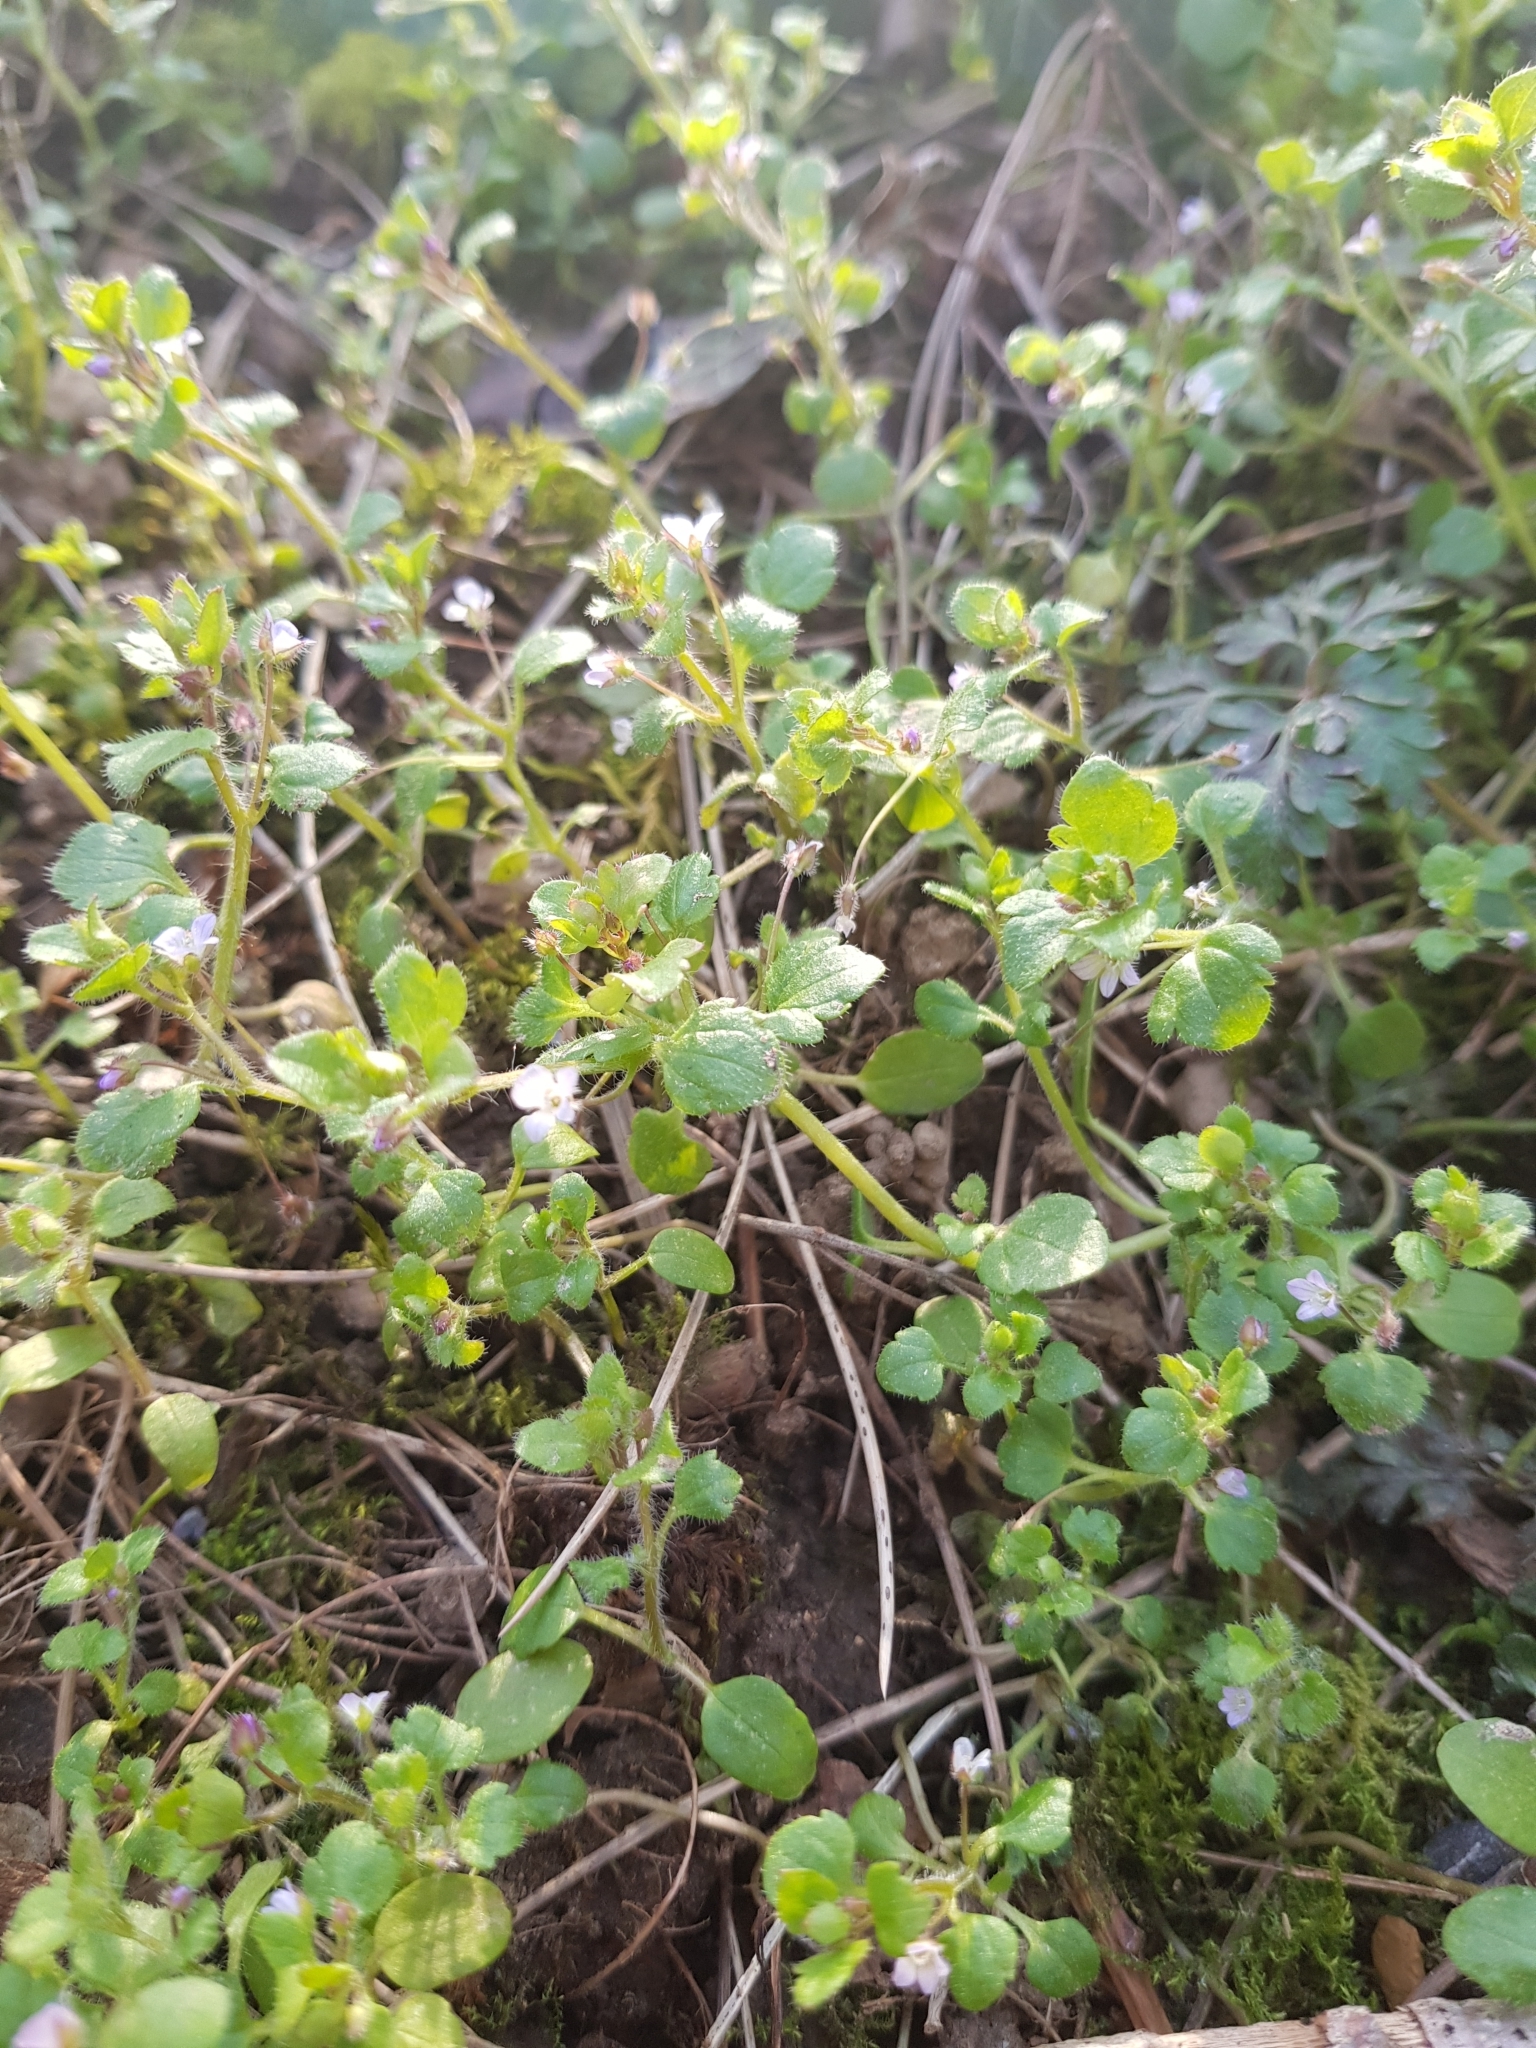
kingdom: Plantae
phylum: Tracheophyta
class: Magnoliopsida
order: Lamiales
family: Plantaginaceae
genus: Veronica
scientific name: Veronica sublobata
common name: False ivy-leaved speedwell
